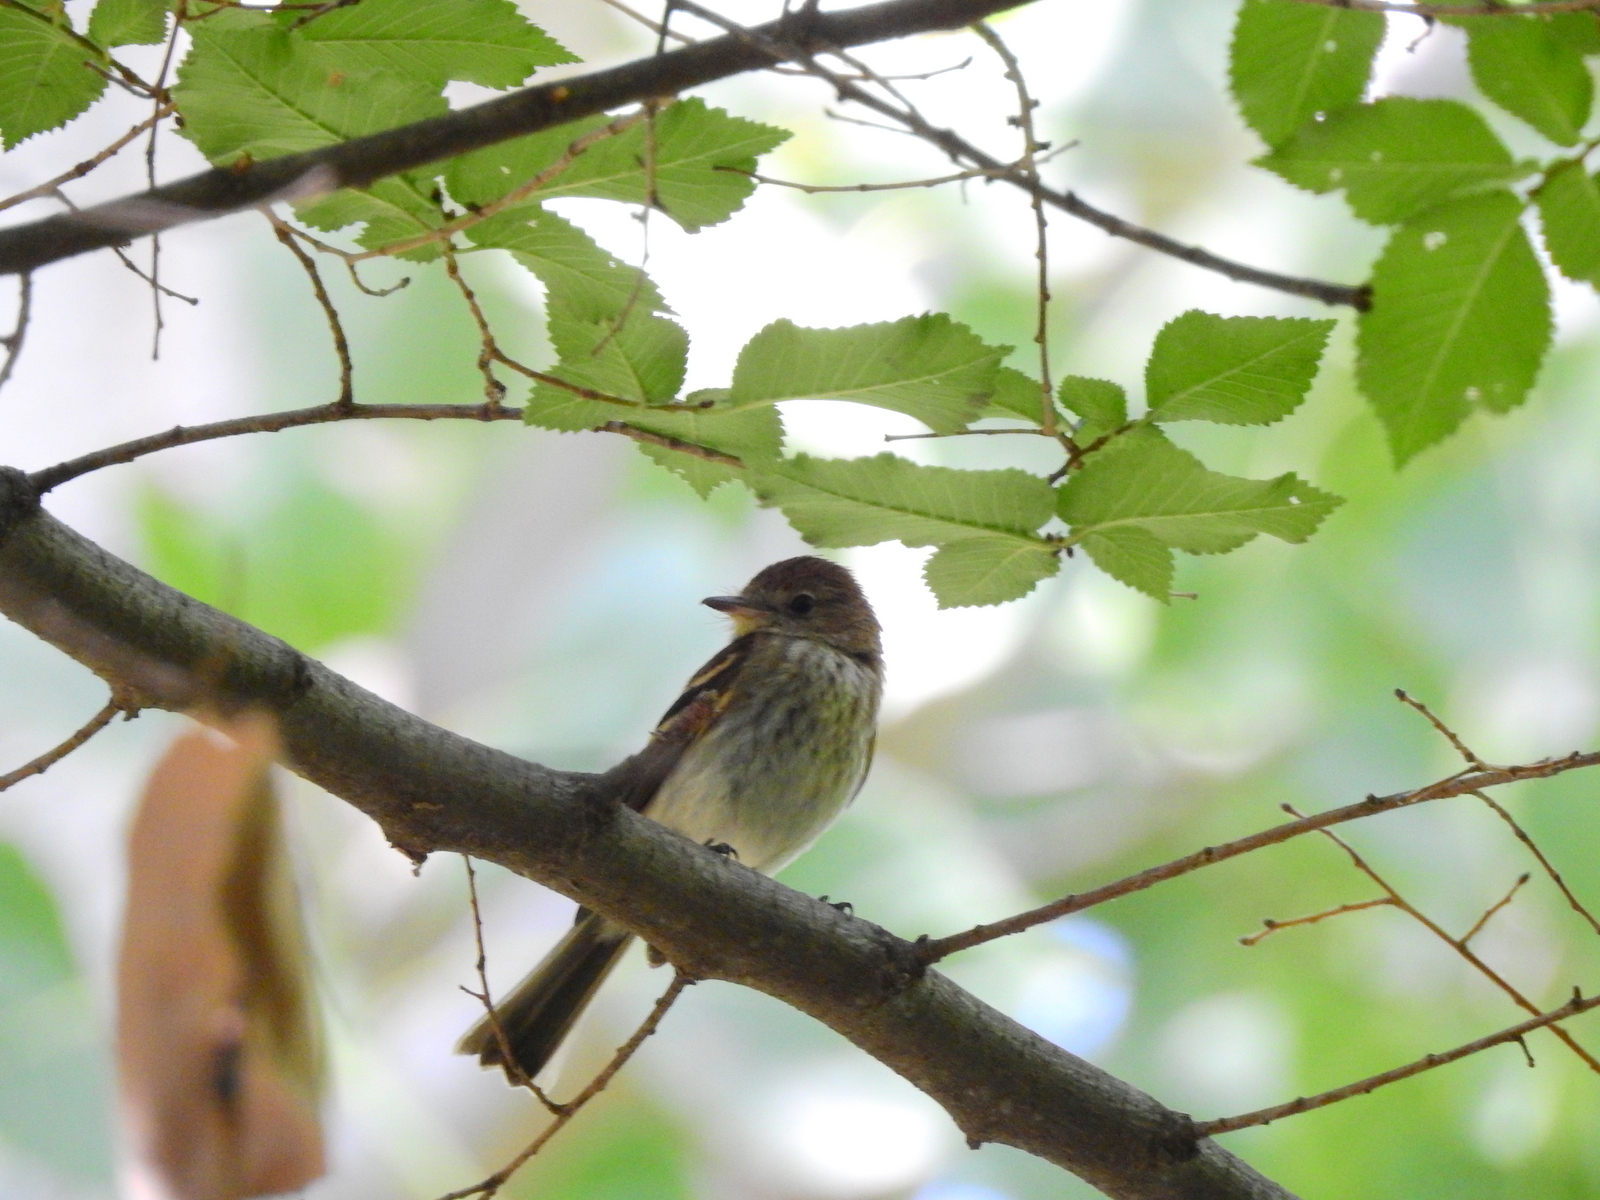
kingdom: Animalia
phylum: Chordata
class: Aves
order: Passeriformes
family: Tyrannidae
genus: Myiophobus
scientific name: Myiophobus fasciatus
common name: Bran-colored flycatcher
